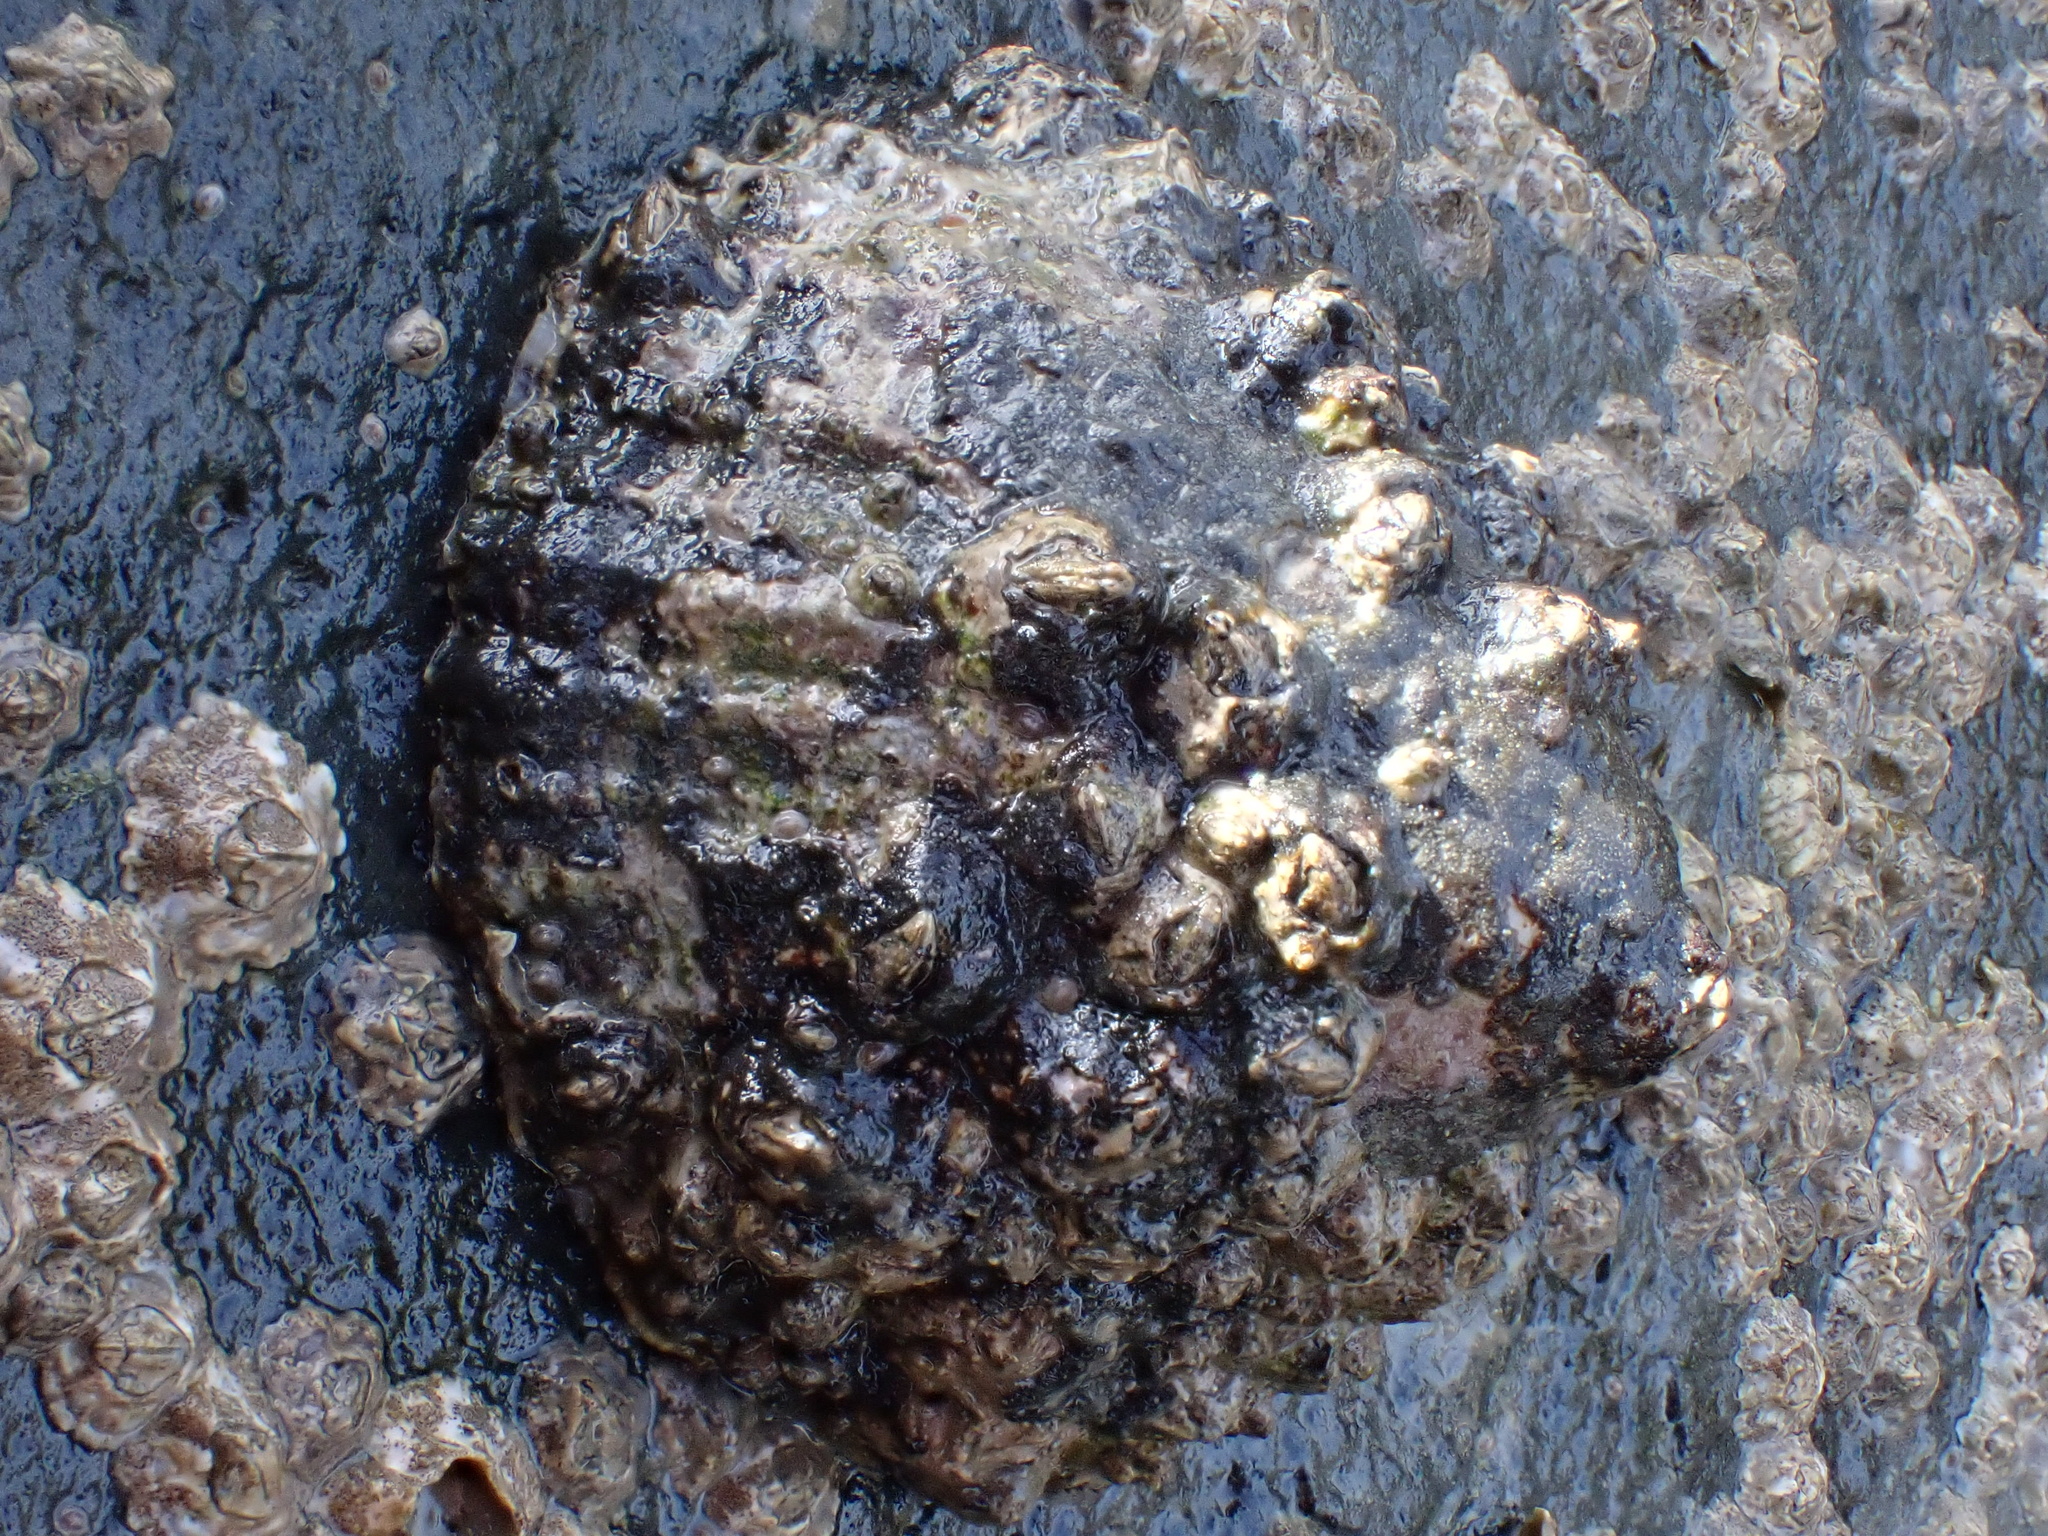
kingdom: Animalia
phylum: Mollusca
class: Gastropoda
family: Patellidae
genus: Patella
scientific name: Patella vulgata
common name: Common limpet
